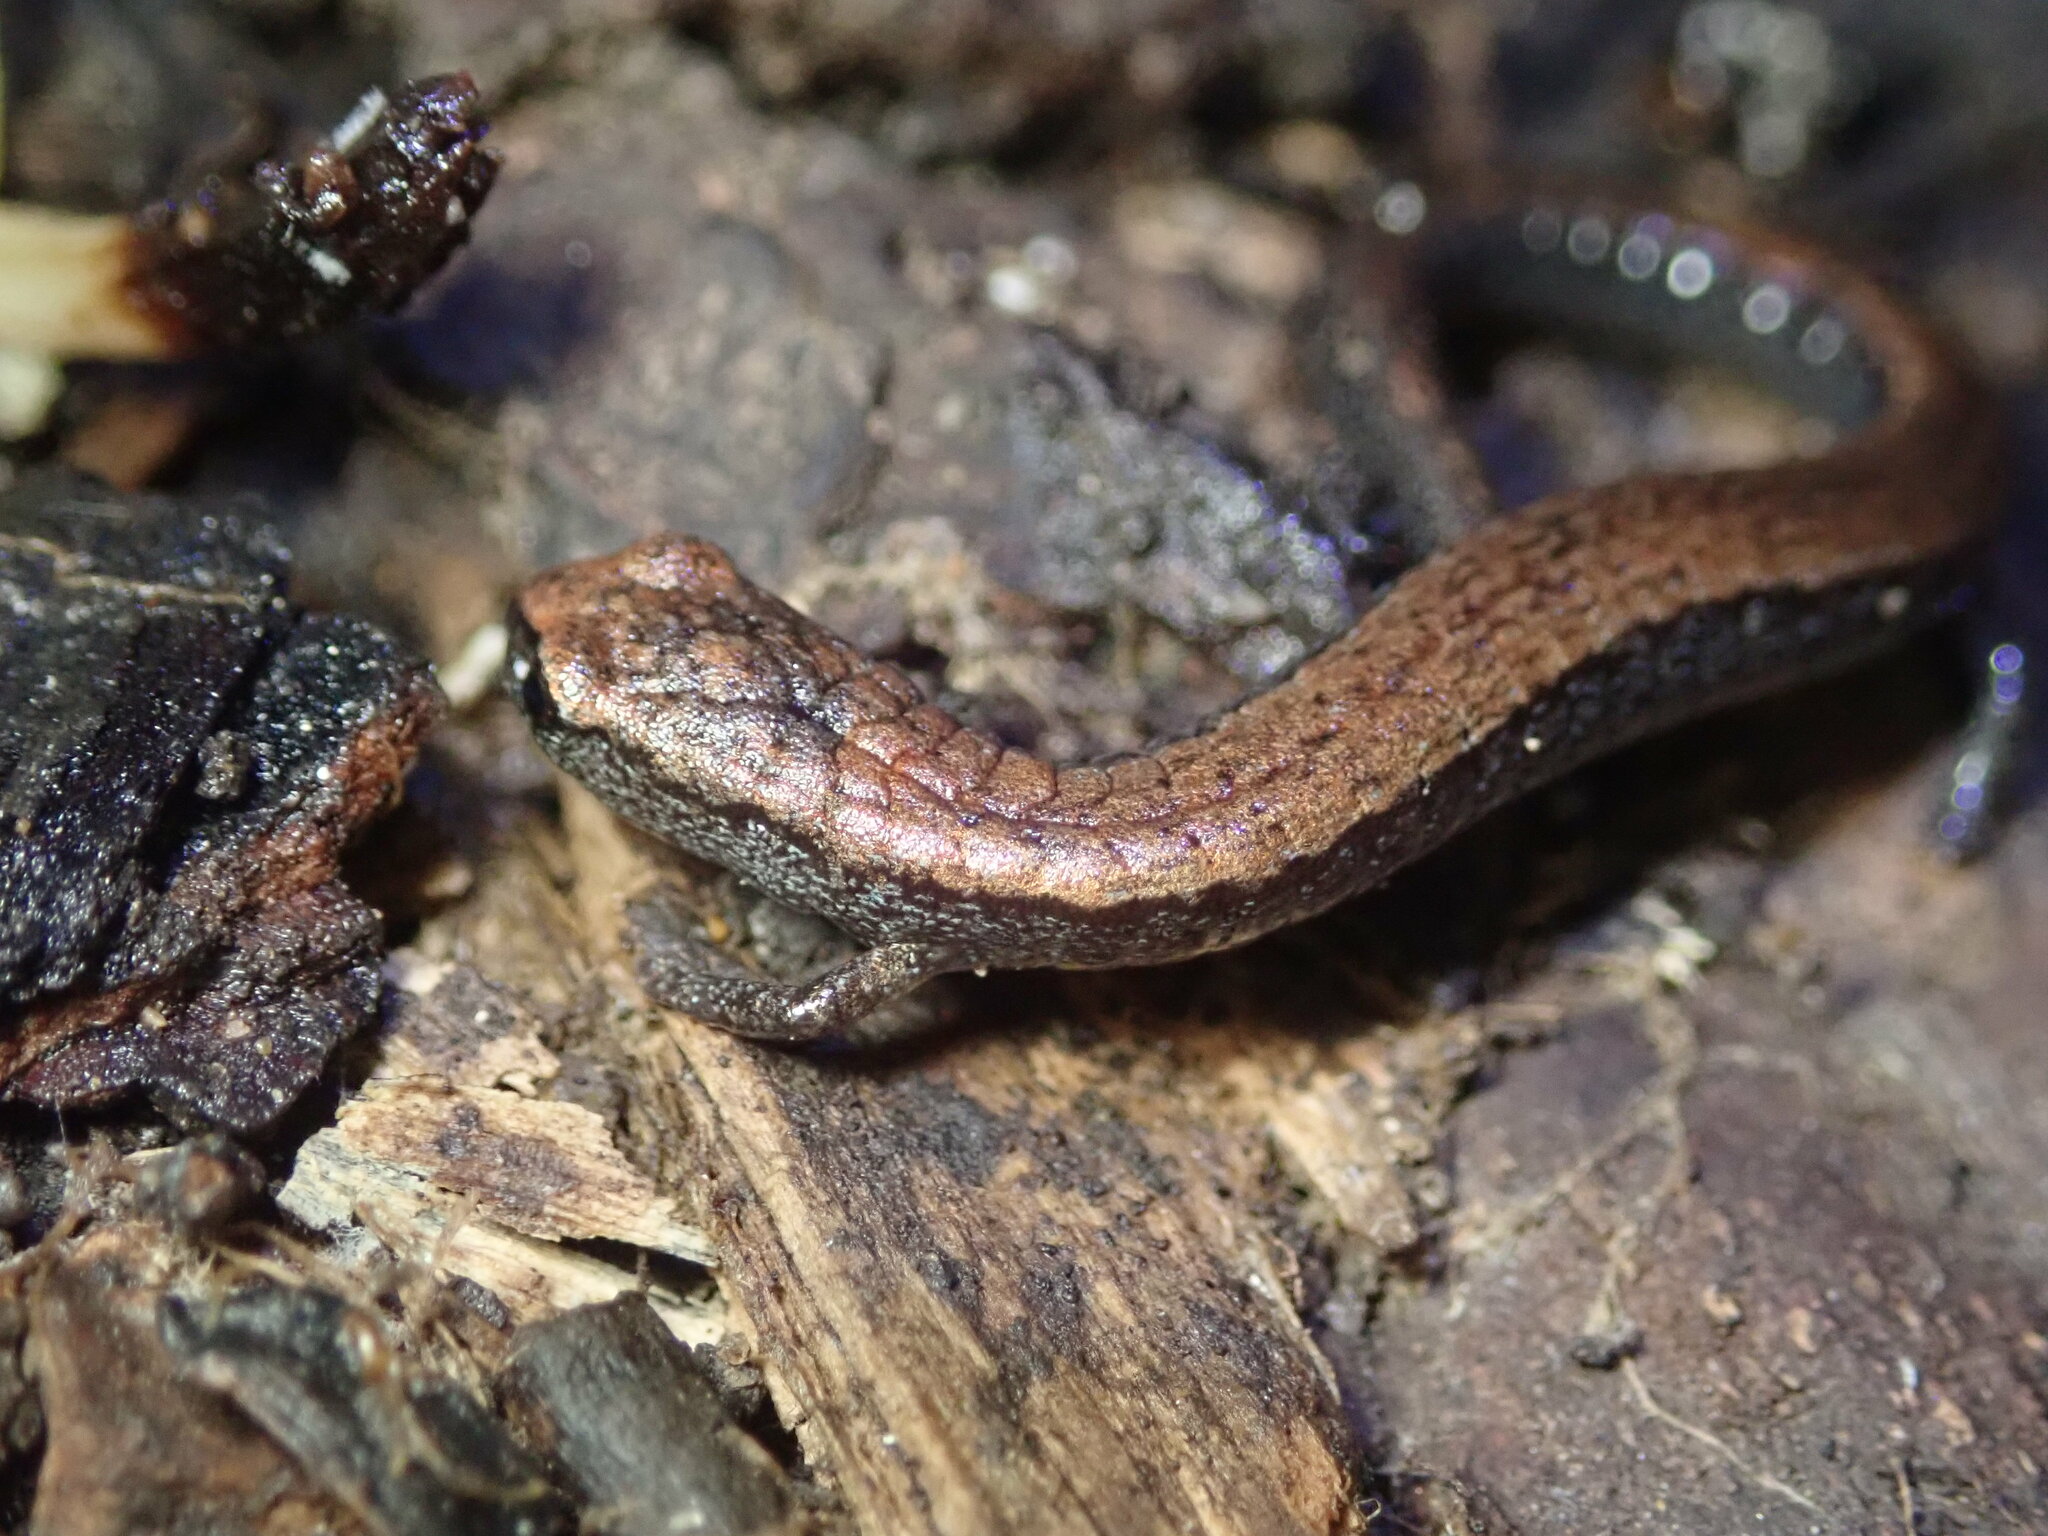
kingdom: Animalia
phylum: Chordata
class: Amphibia
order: Caudata
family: Plethodontidae
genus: Batrachoseps
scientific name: Batrachoseps attenuatus
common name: California slender salamander
